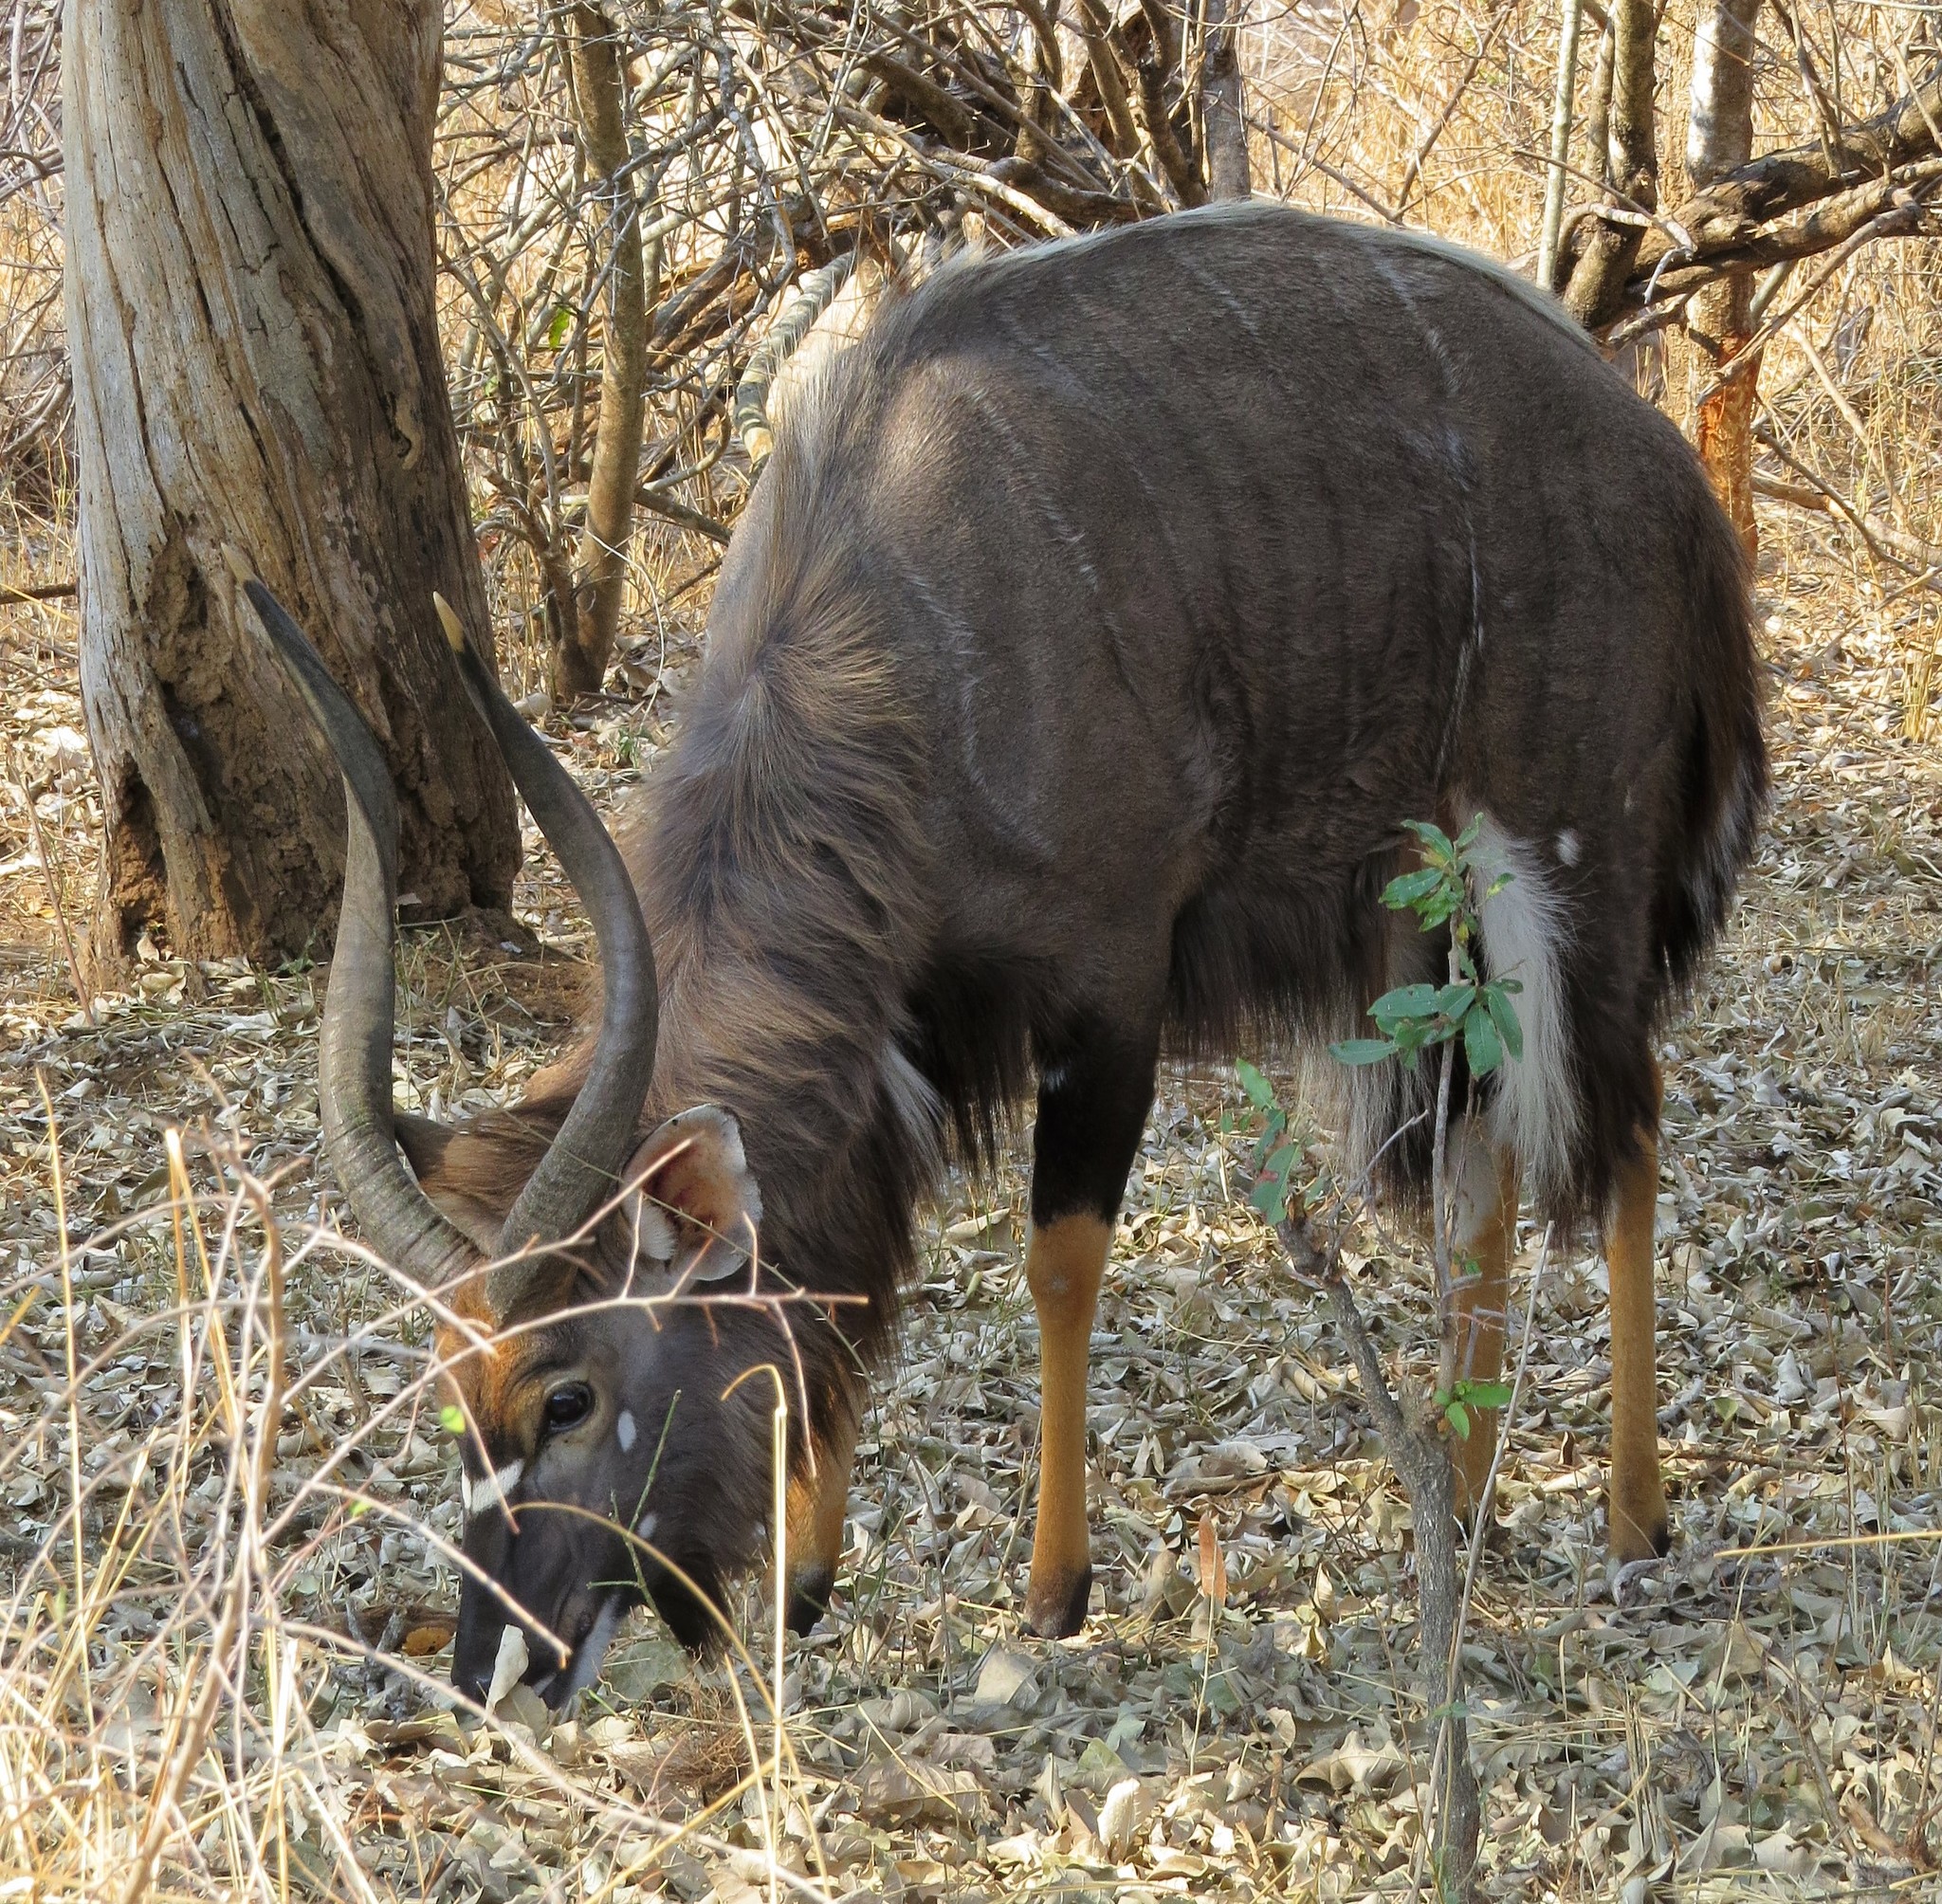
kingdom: Animalia
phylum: Chordata
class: Mammalia
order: Artiodactyla
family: Bovidae
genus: Tragelaphus
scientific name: Tragelaphus angasii
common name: Nyala
